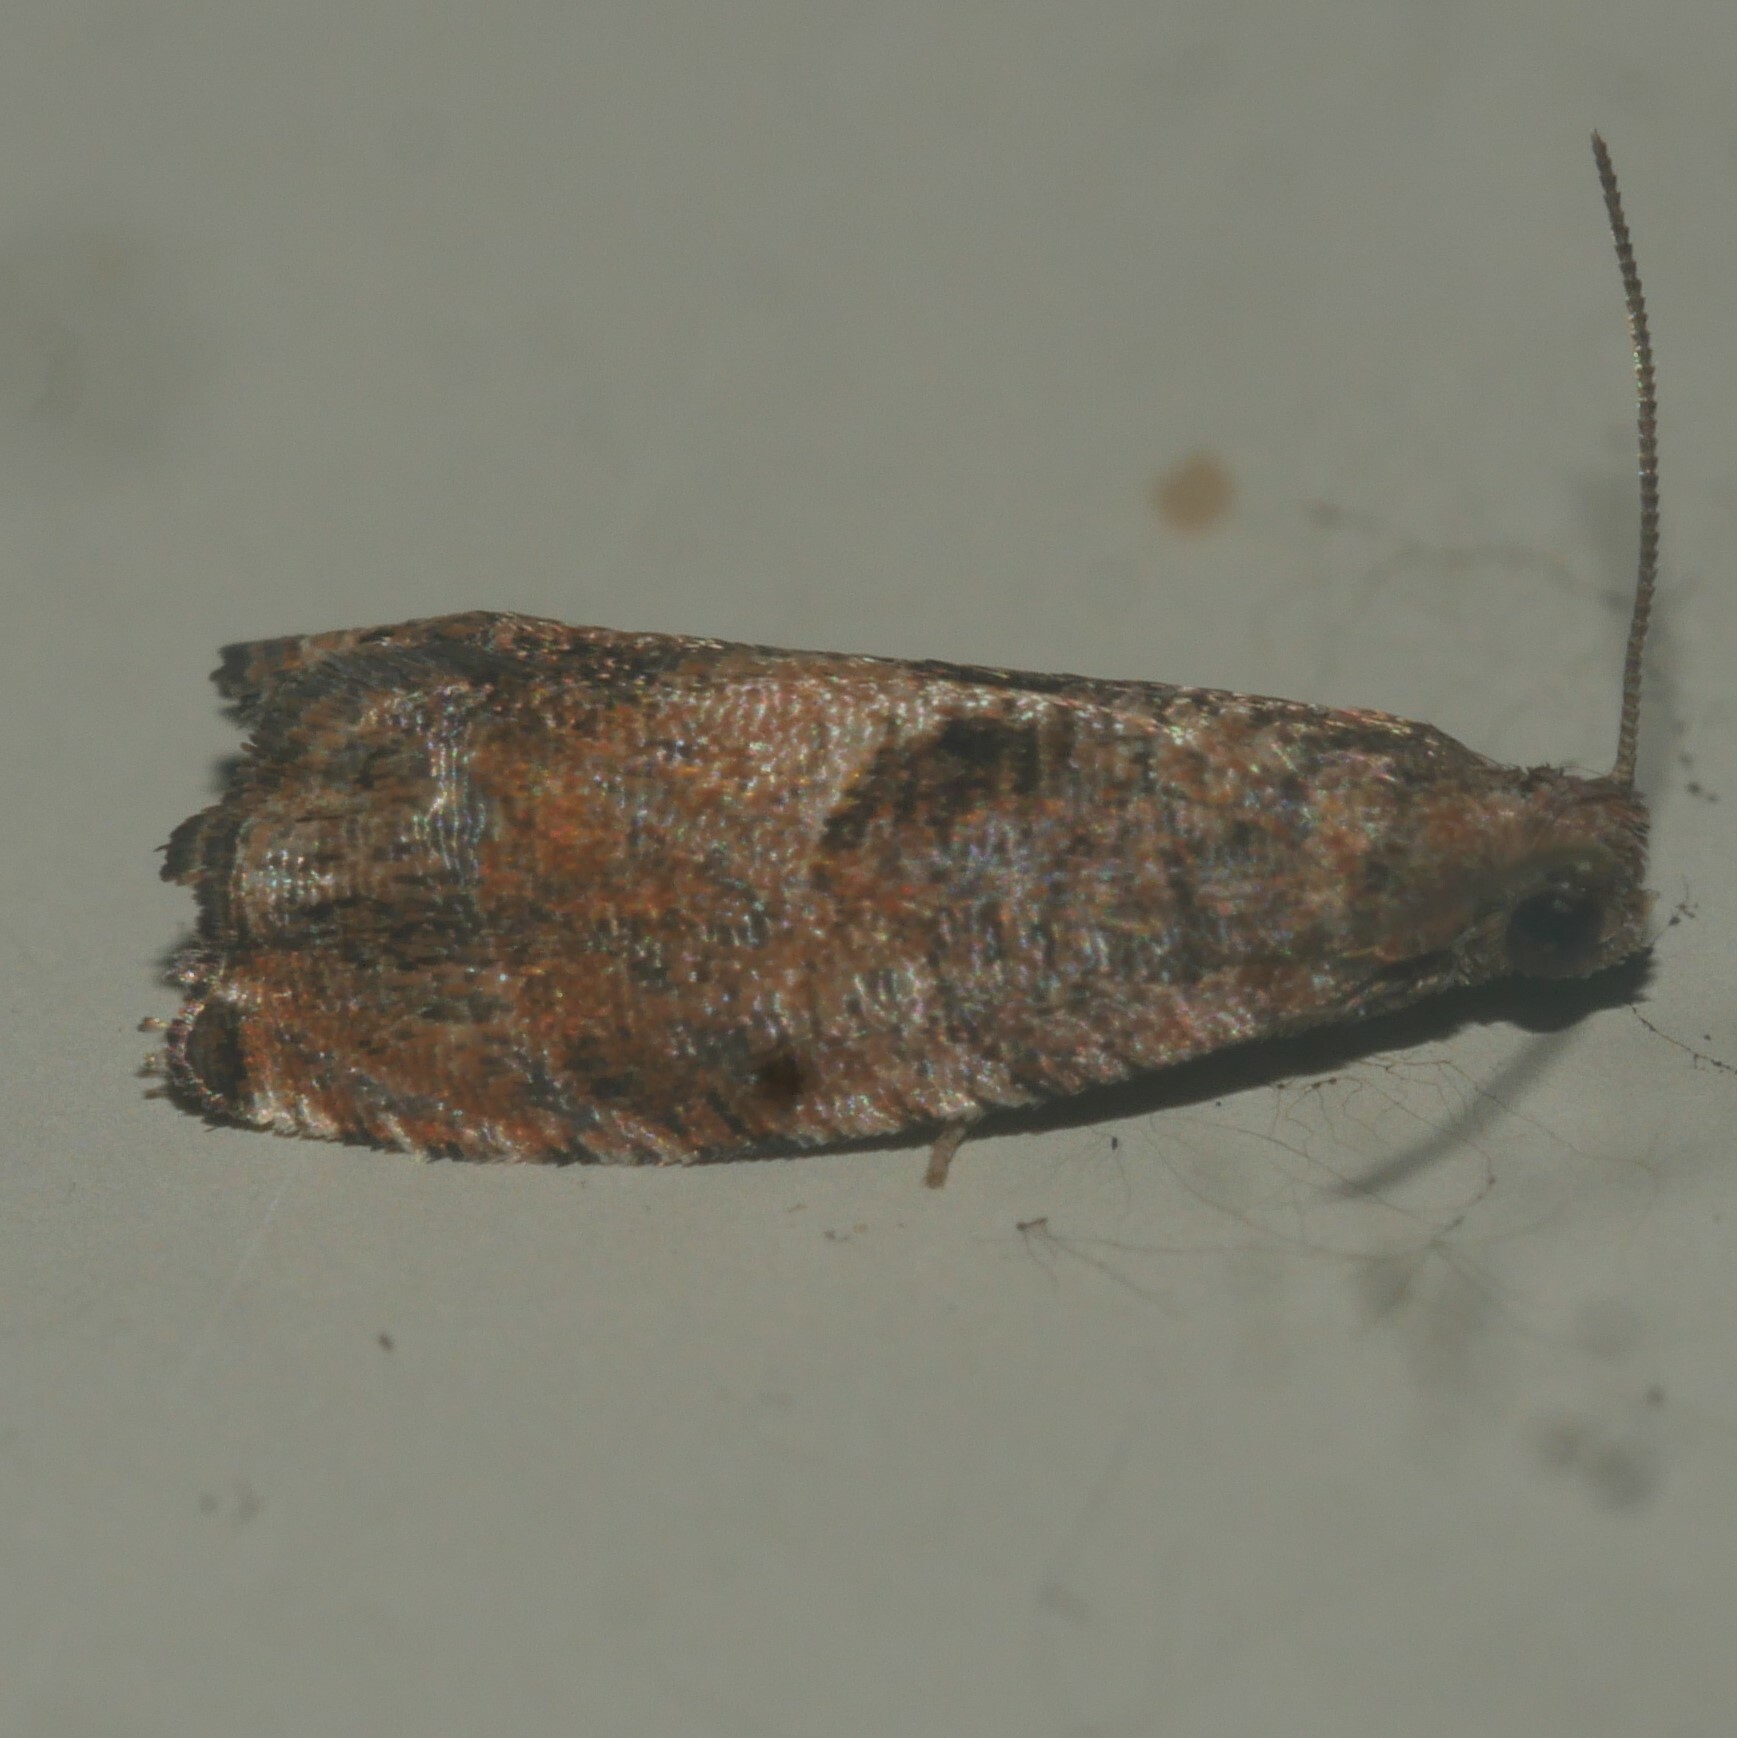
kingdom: Animalia
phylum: Arthropoda
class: Insecta
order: Lepidoptera
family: Tortricidae
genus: Gypsonoma
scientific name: Gypsonoma salicicolana
